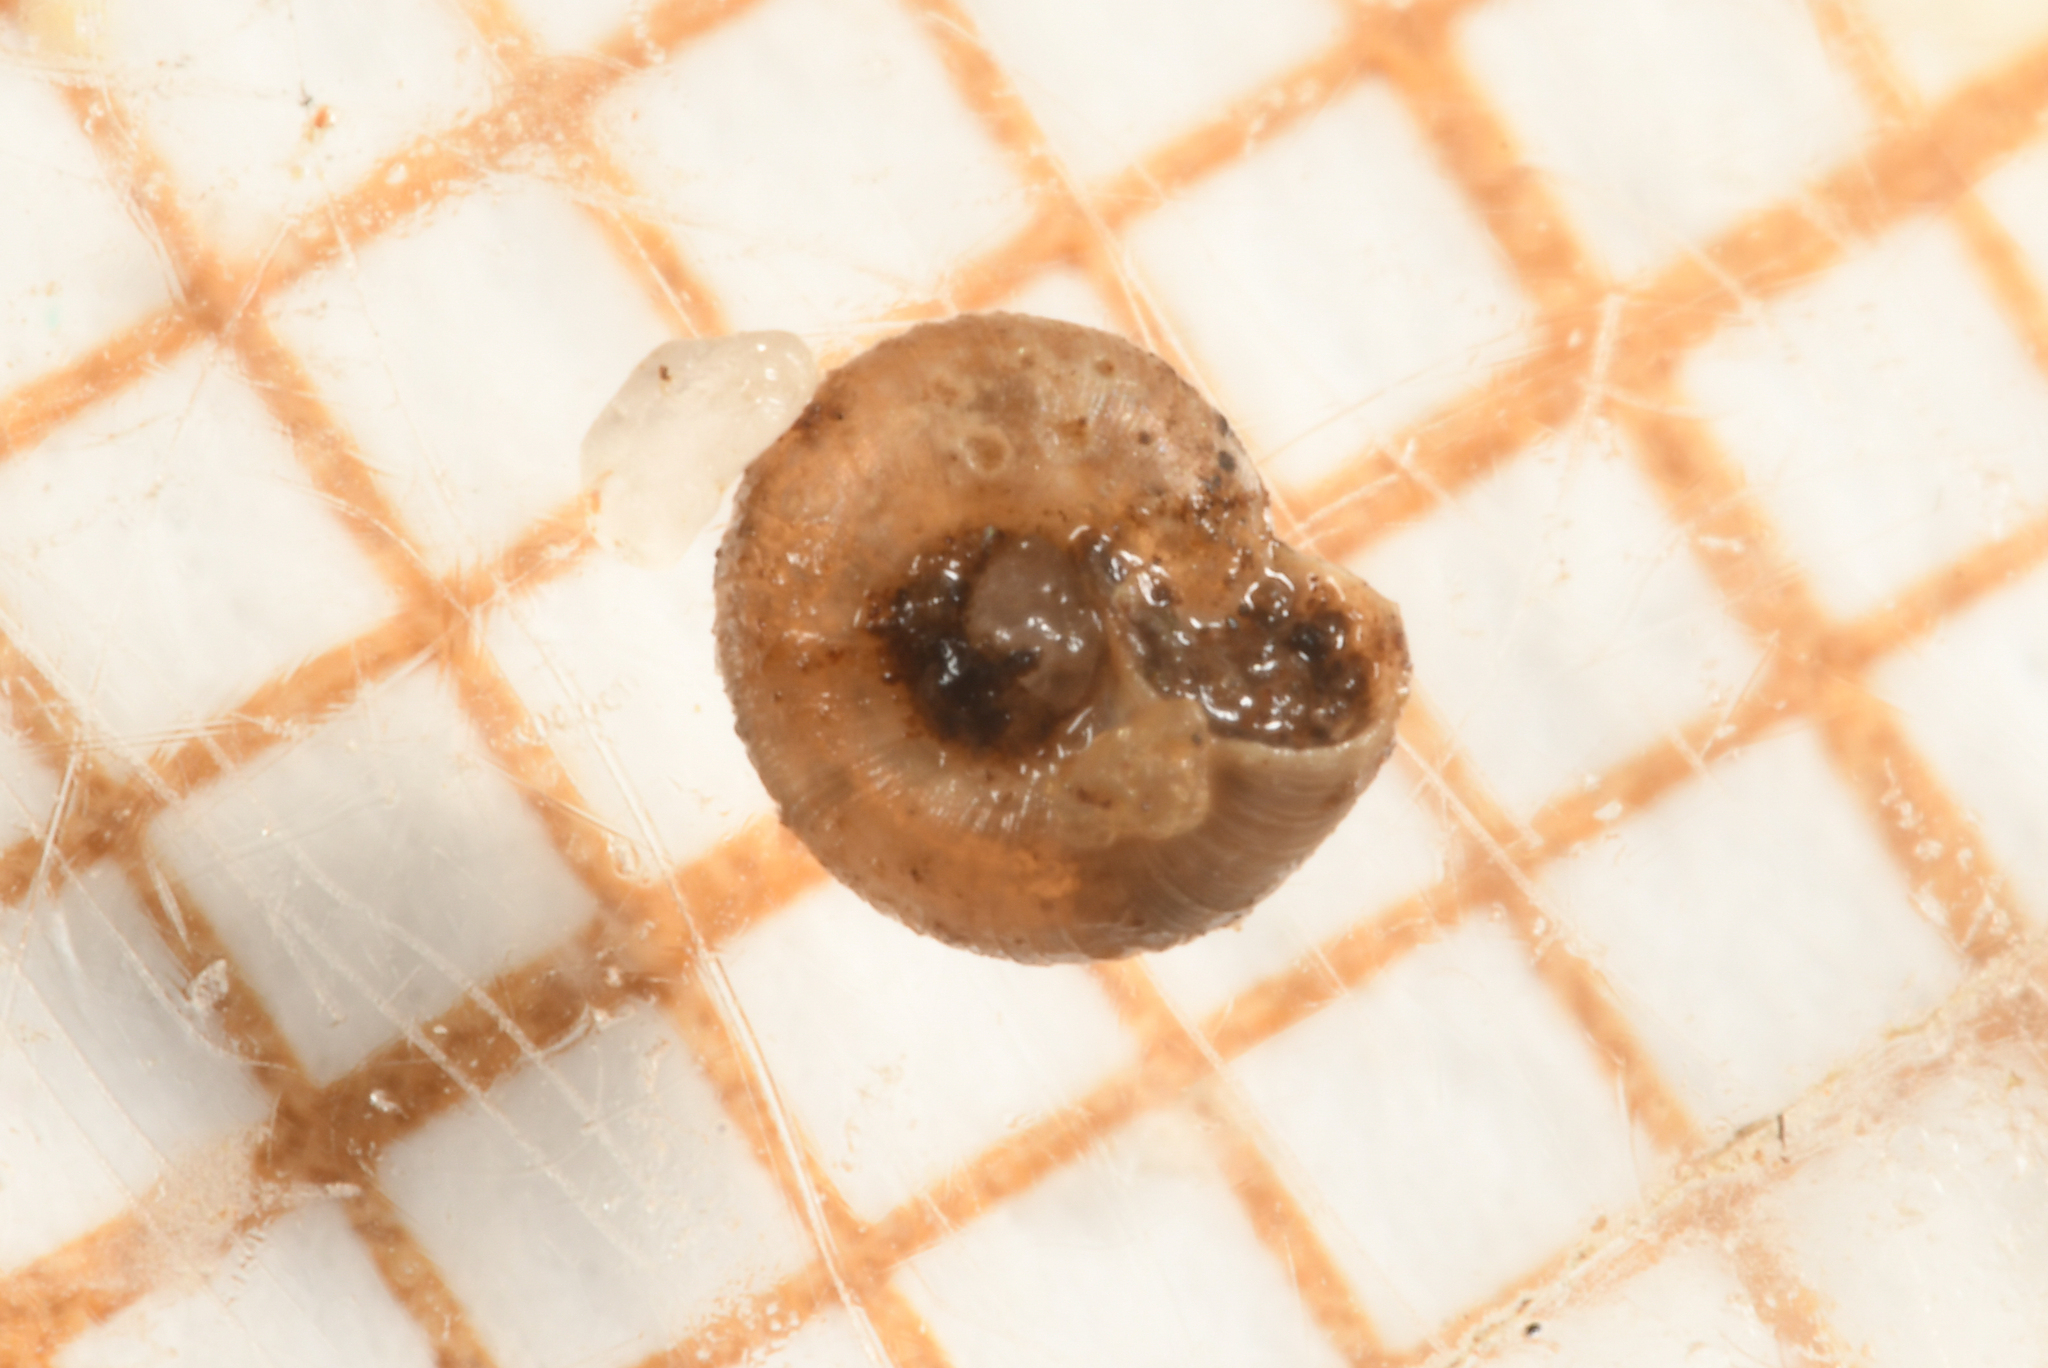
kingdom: Animalia
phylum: Mollusca
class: Gastropoda
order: Stylommatophora
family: Punctidae
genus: Paralaoma
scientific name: Paralaoma servilis
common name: Pinhead spot
